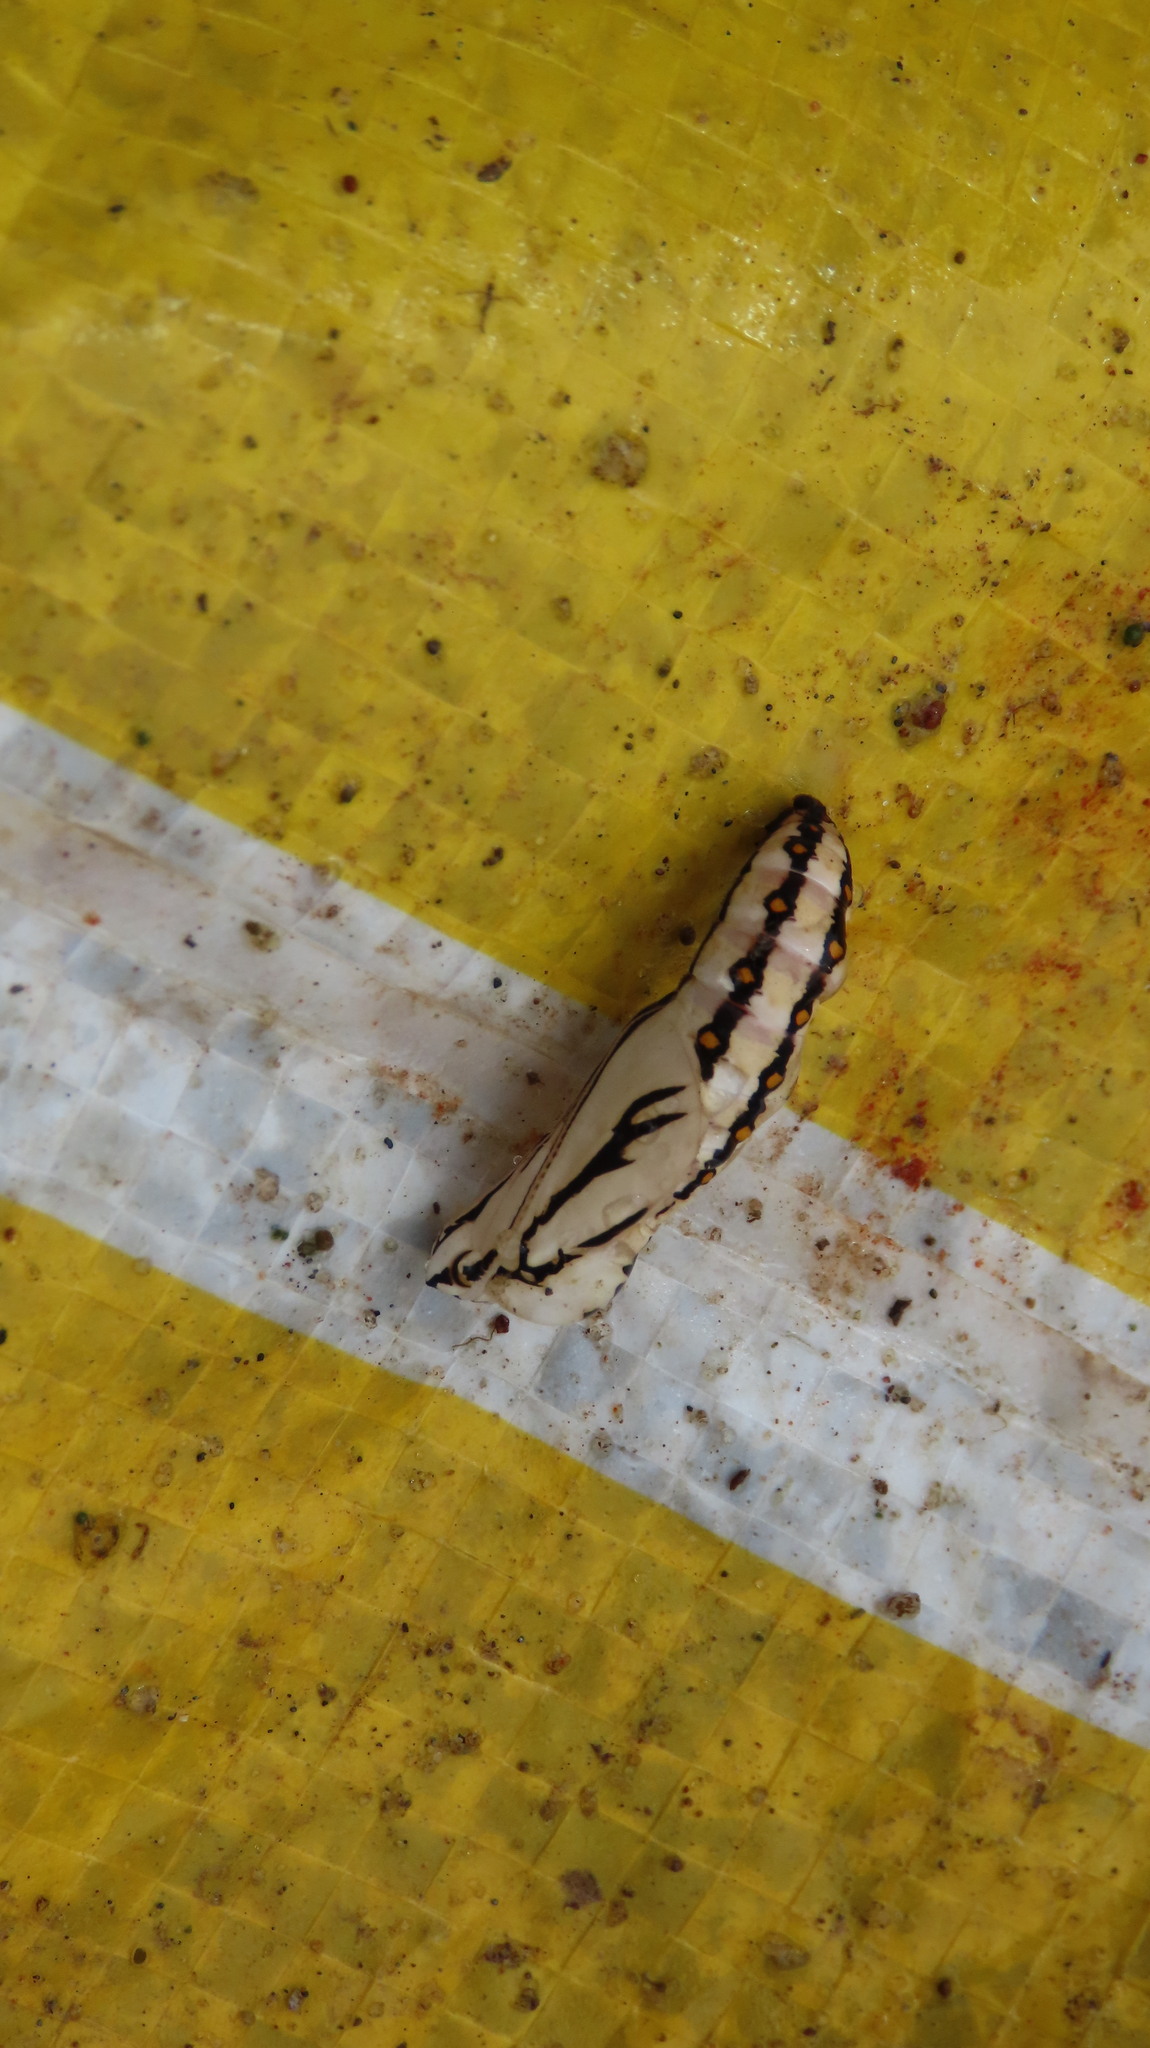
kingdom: Animalia
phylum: Arthropoda
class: Insecta
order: Lepidoptera
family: Nymphalidae
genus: Acraea
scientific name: Acraea terpsicore
